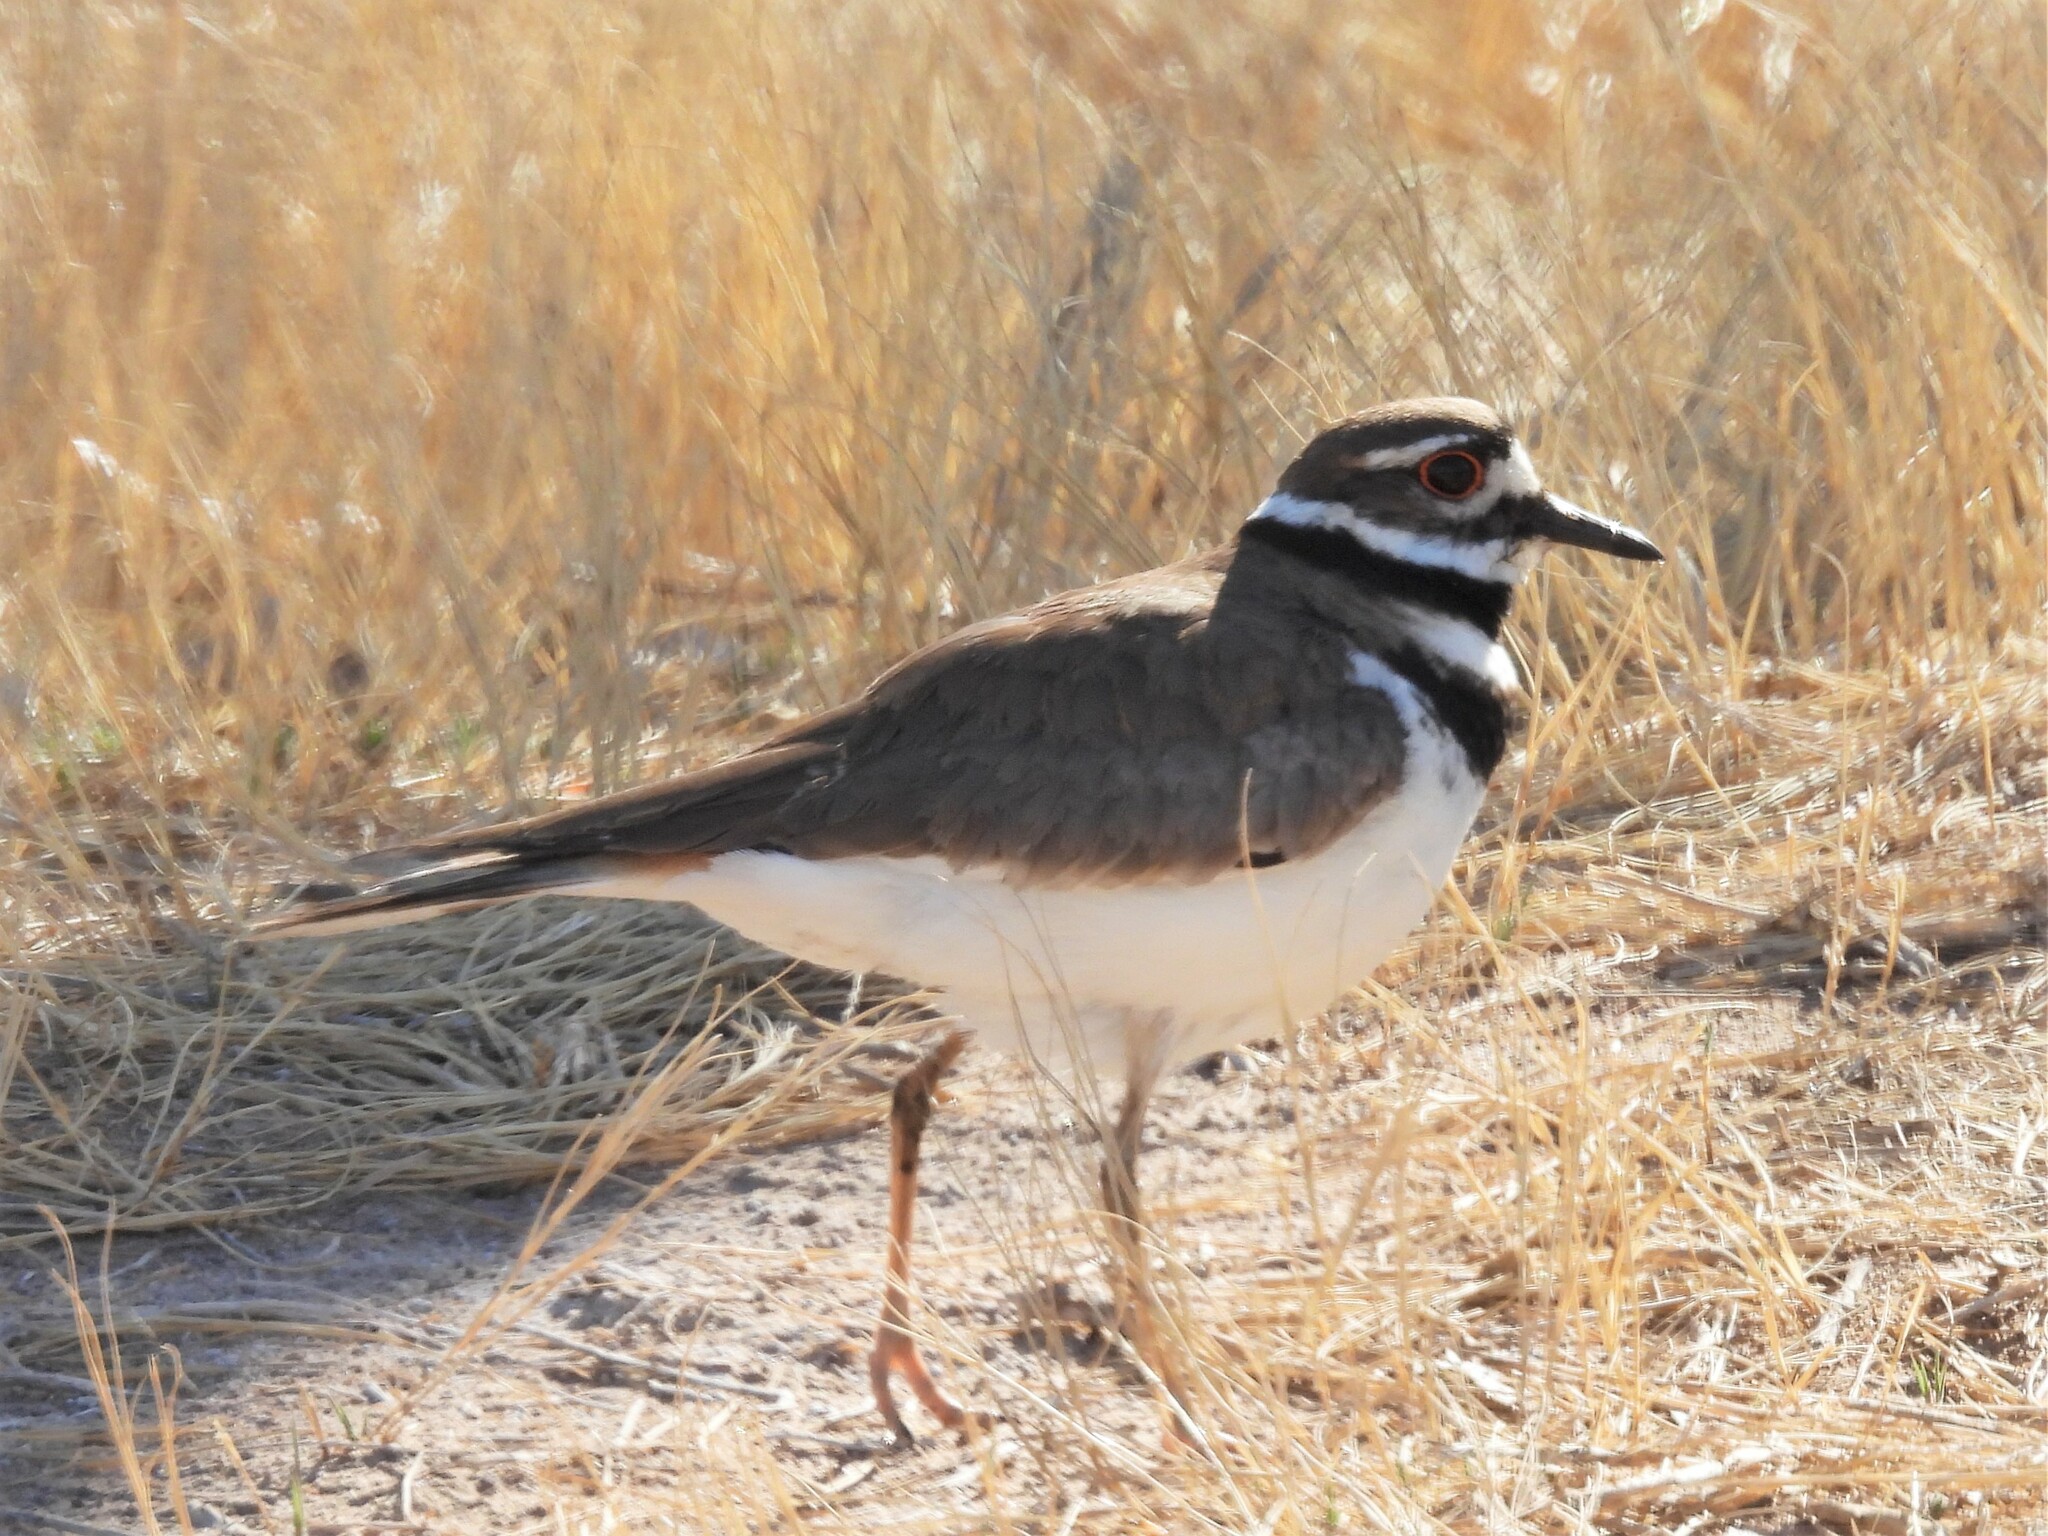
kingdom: Animalia
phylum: Chordata
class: Aves
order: Charadriiformes
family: Charadriidae
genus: Charadrius
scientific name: Charadrius vociferus
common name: Killdeer
